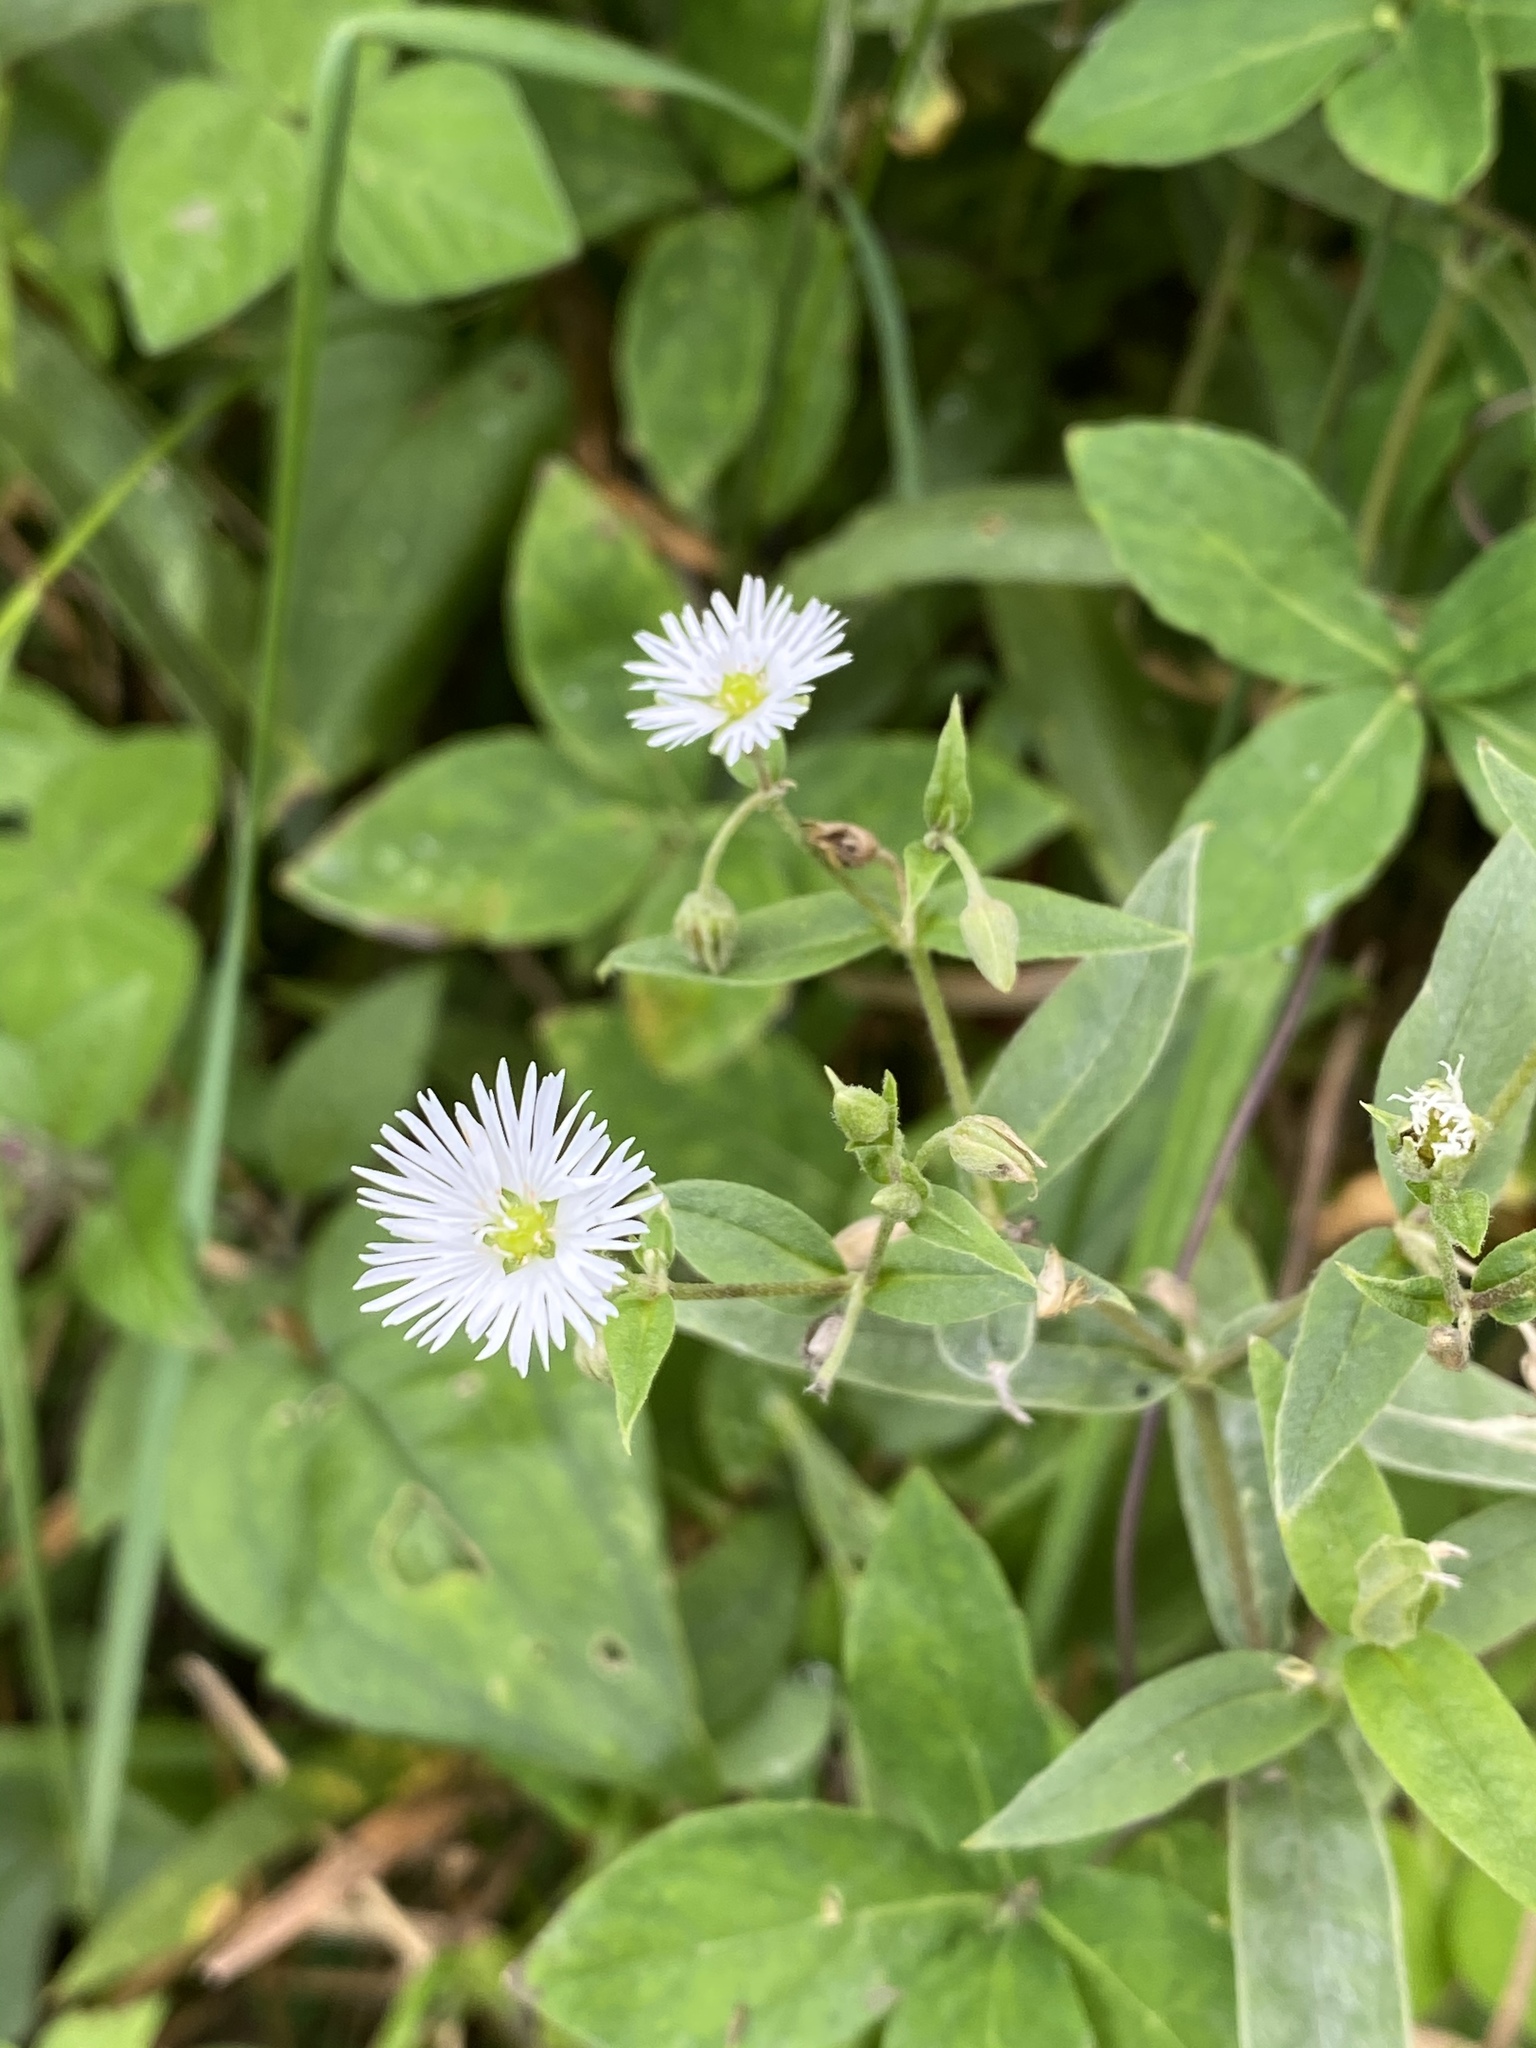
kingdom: Plantae
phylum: Tracheophyta
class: Magnoliopsida
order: Caryophyllales
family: Caryophyllaceae
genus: Stellaria
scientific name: Stellaria radians
